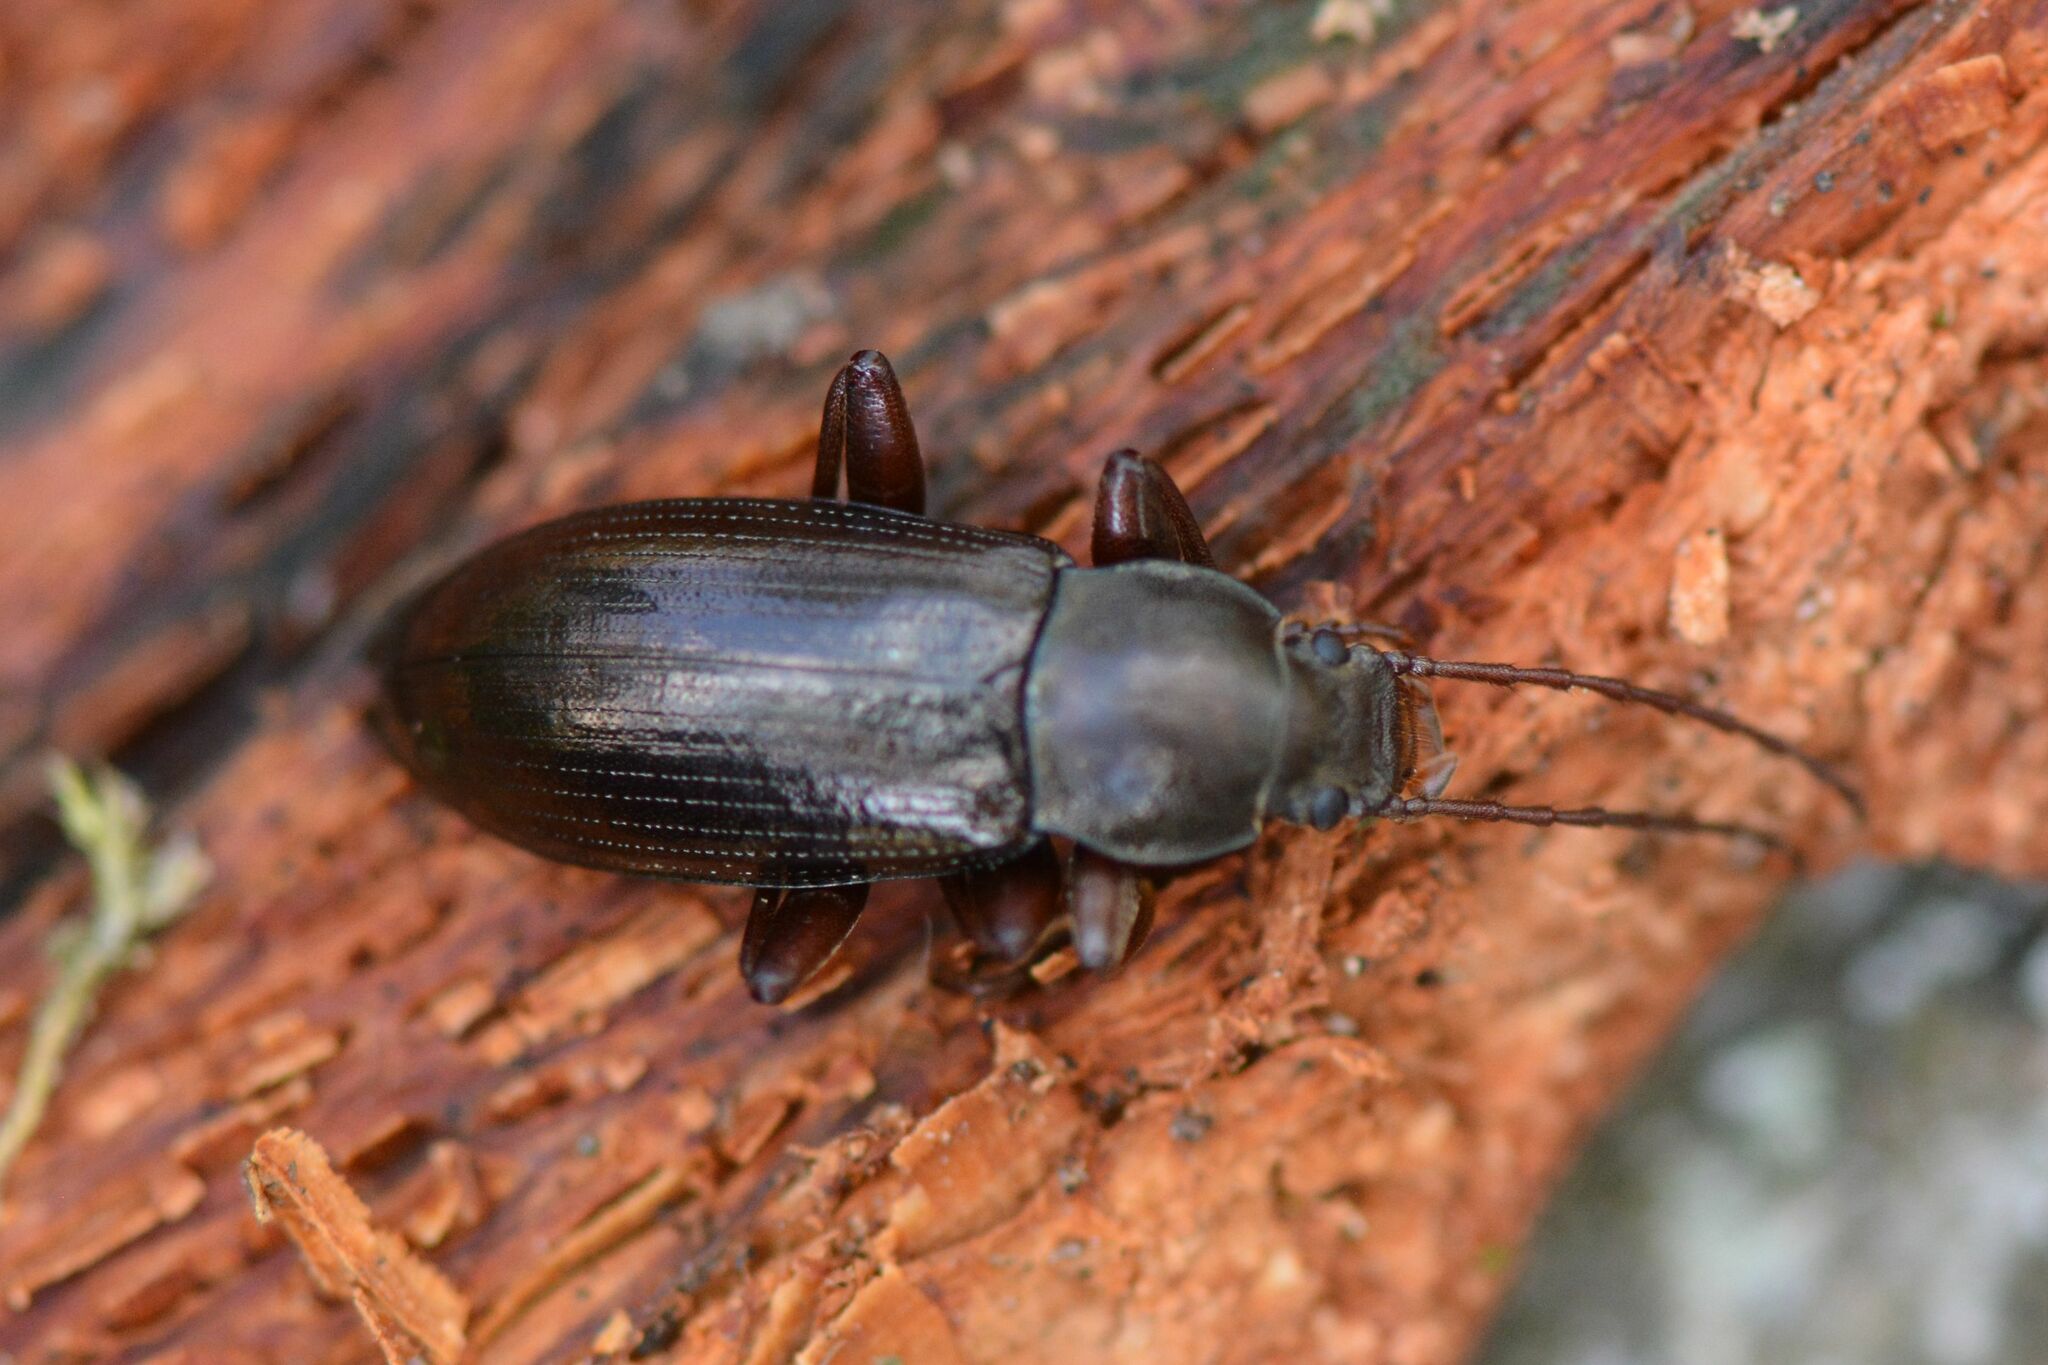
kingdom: Animalia
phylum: Arthropoda
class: Insecta
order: Coleoptera
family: Tenebrionidae
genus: Stenomax
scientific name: Stenomax aeneus
